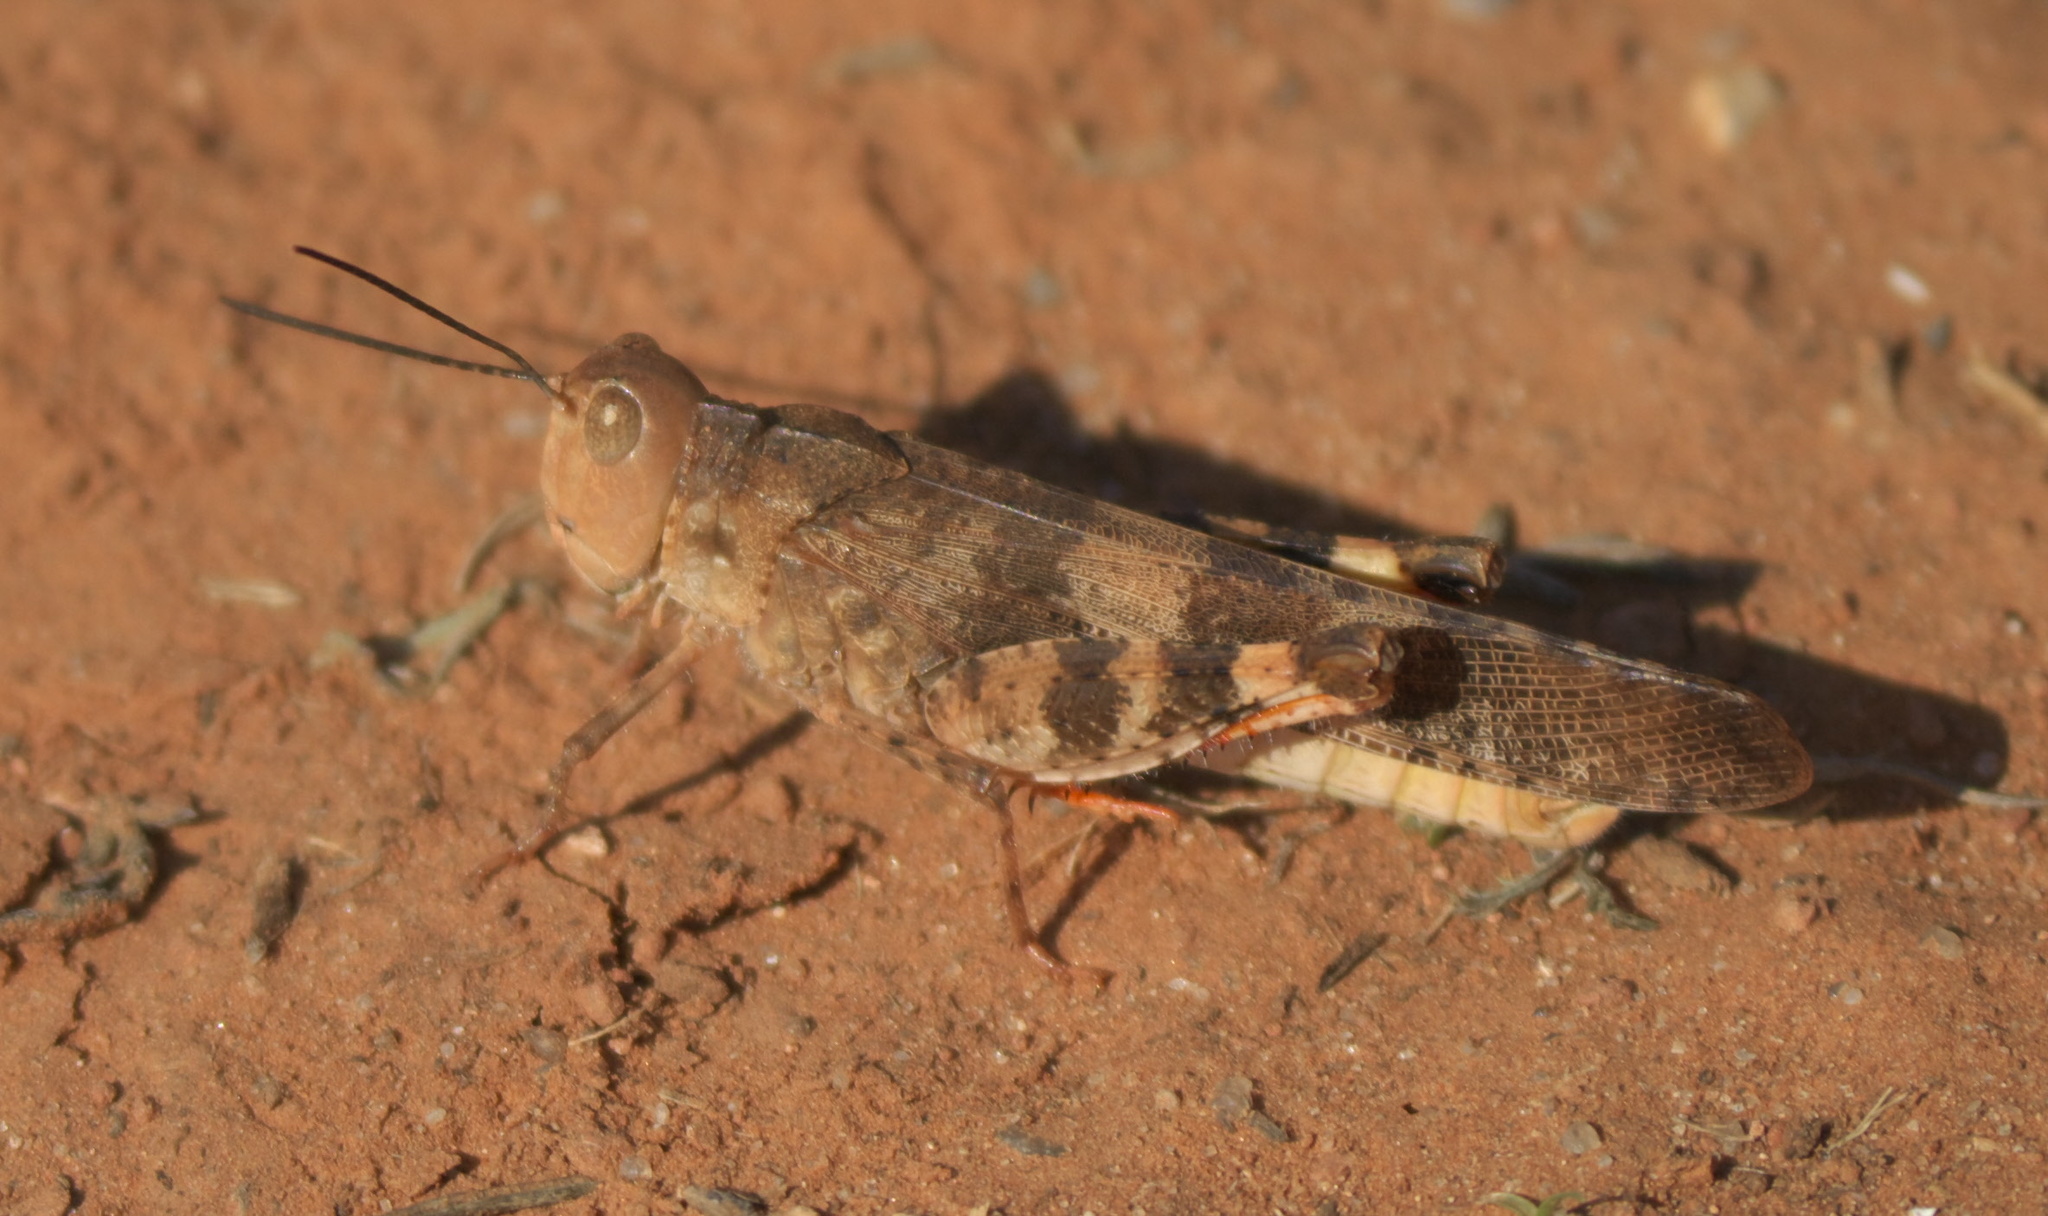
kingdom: Animalia
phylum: Arthropoda
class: Insecta
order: Orthoptera
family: Acrididae
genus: Spharagemon
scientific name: Spharagemon equale
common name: Orange-legged grasshopper
